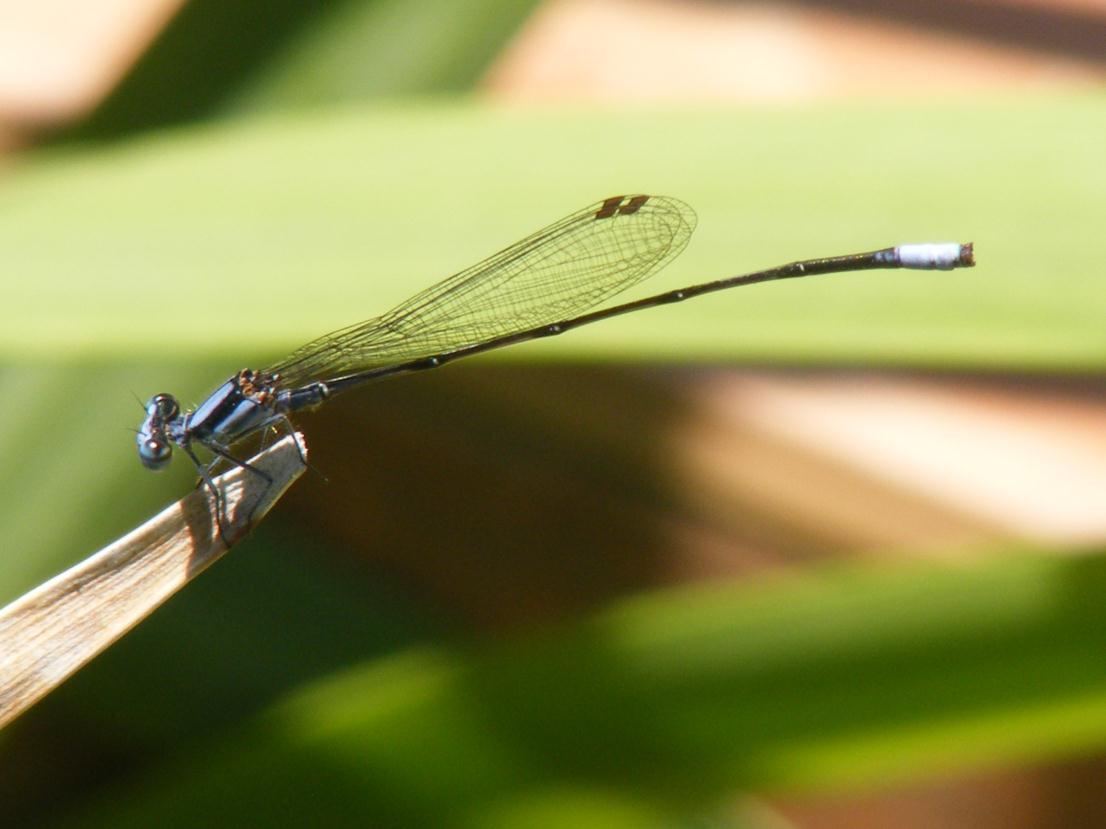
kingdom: Animalia
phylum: Arthropoda
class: Insecta
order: Odonata
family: Platycnemididae
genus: Elattoneura
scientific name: Elattoneura glauca
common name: Common threadtail
